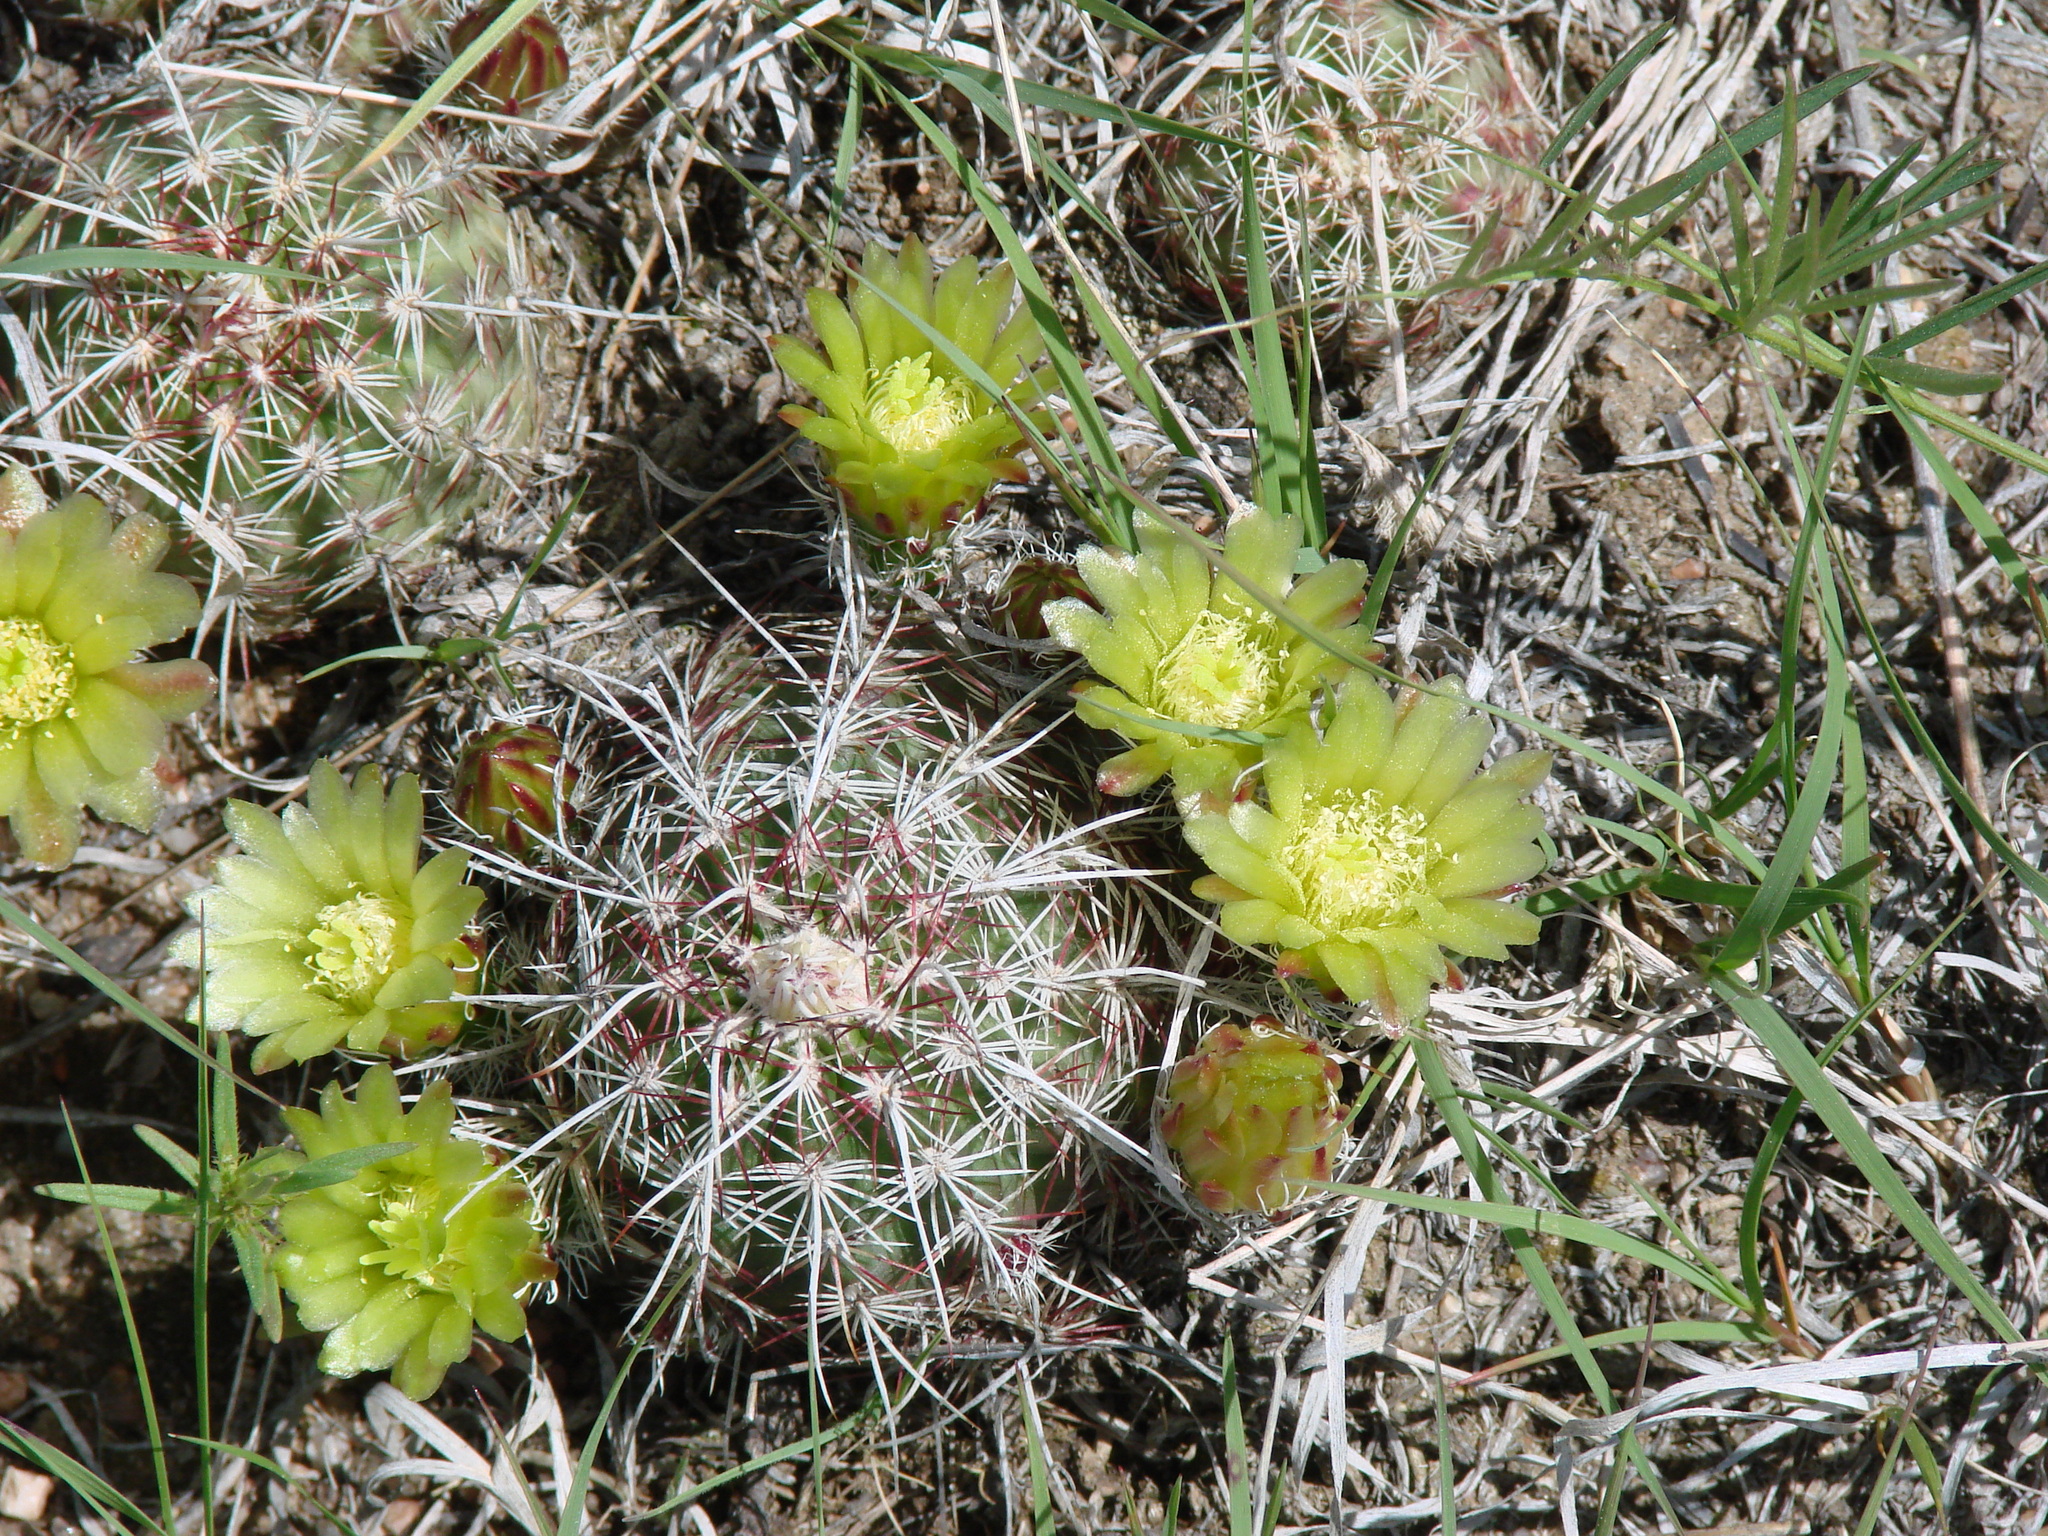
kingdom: Plantae
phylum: Tracheophyta
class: Magnoliopsida
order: Caryophyllales
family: Cactaceae
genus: Echinocereus
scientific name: Echinocereus viridiflorus
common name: Nylon hedgehog cactus
